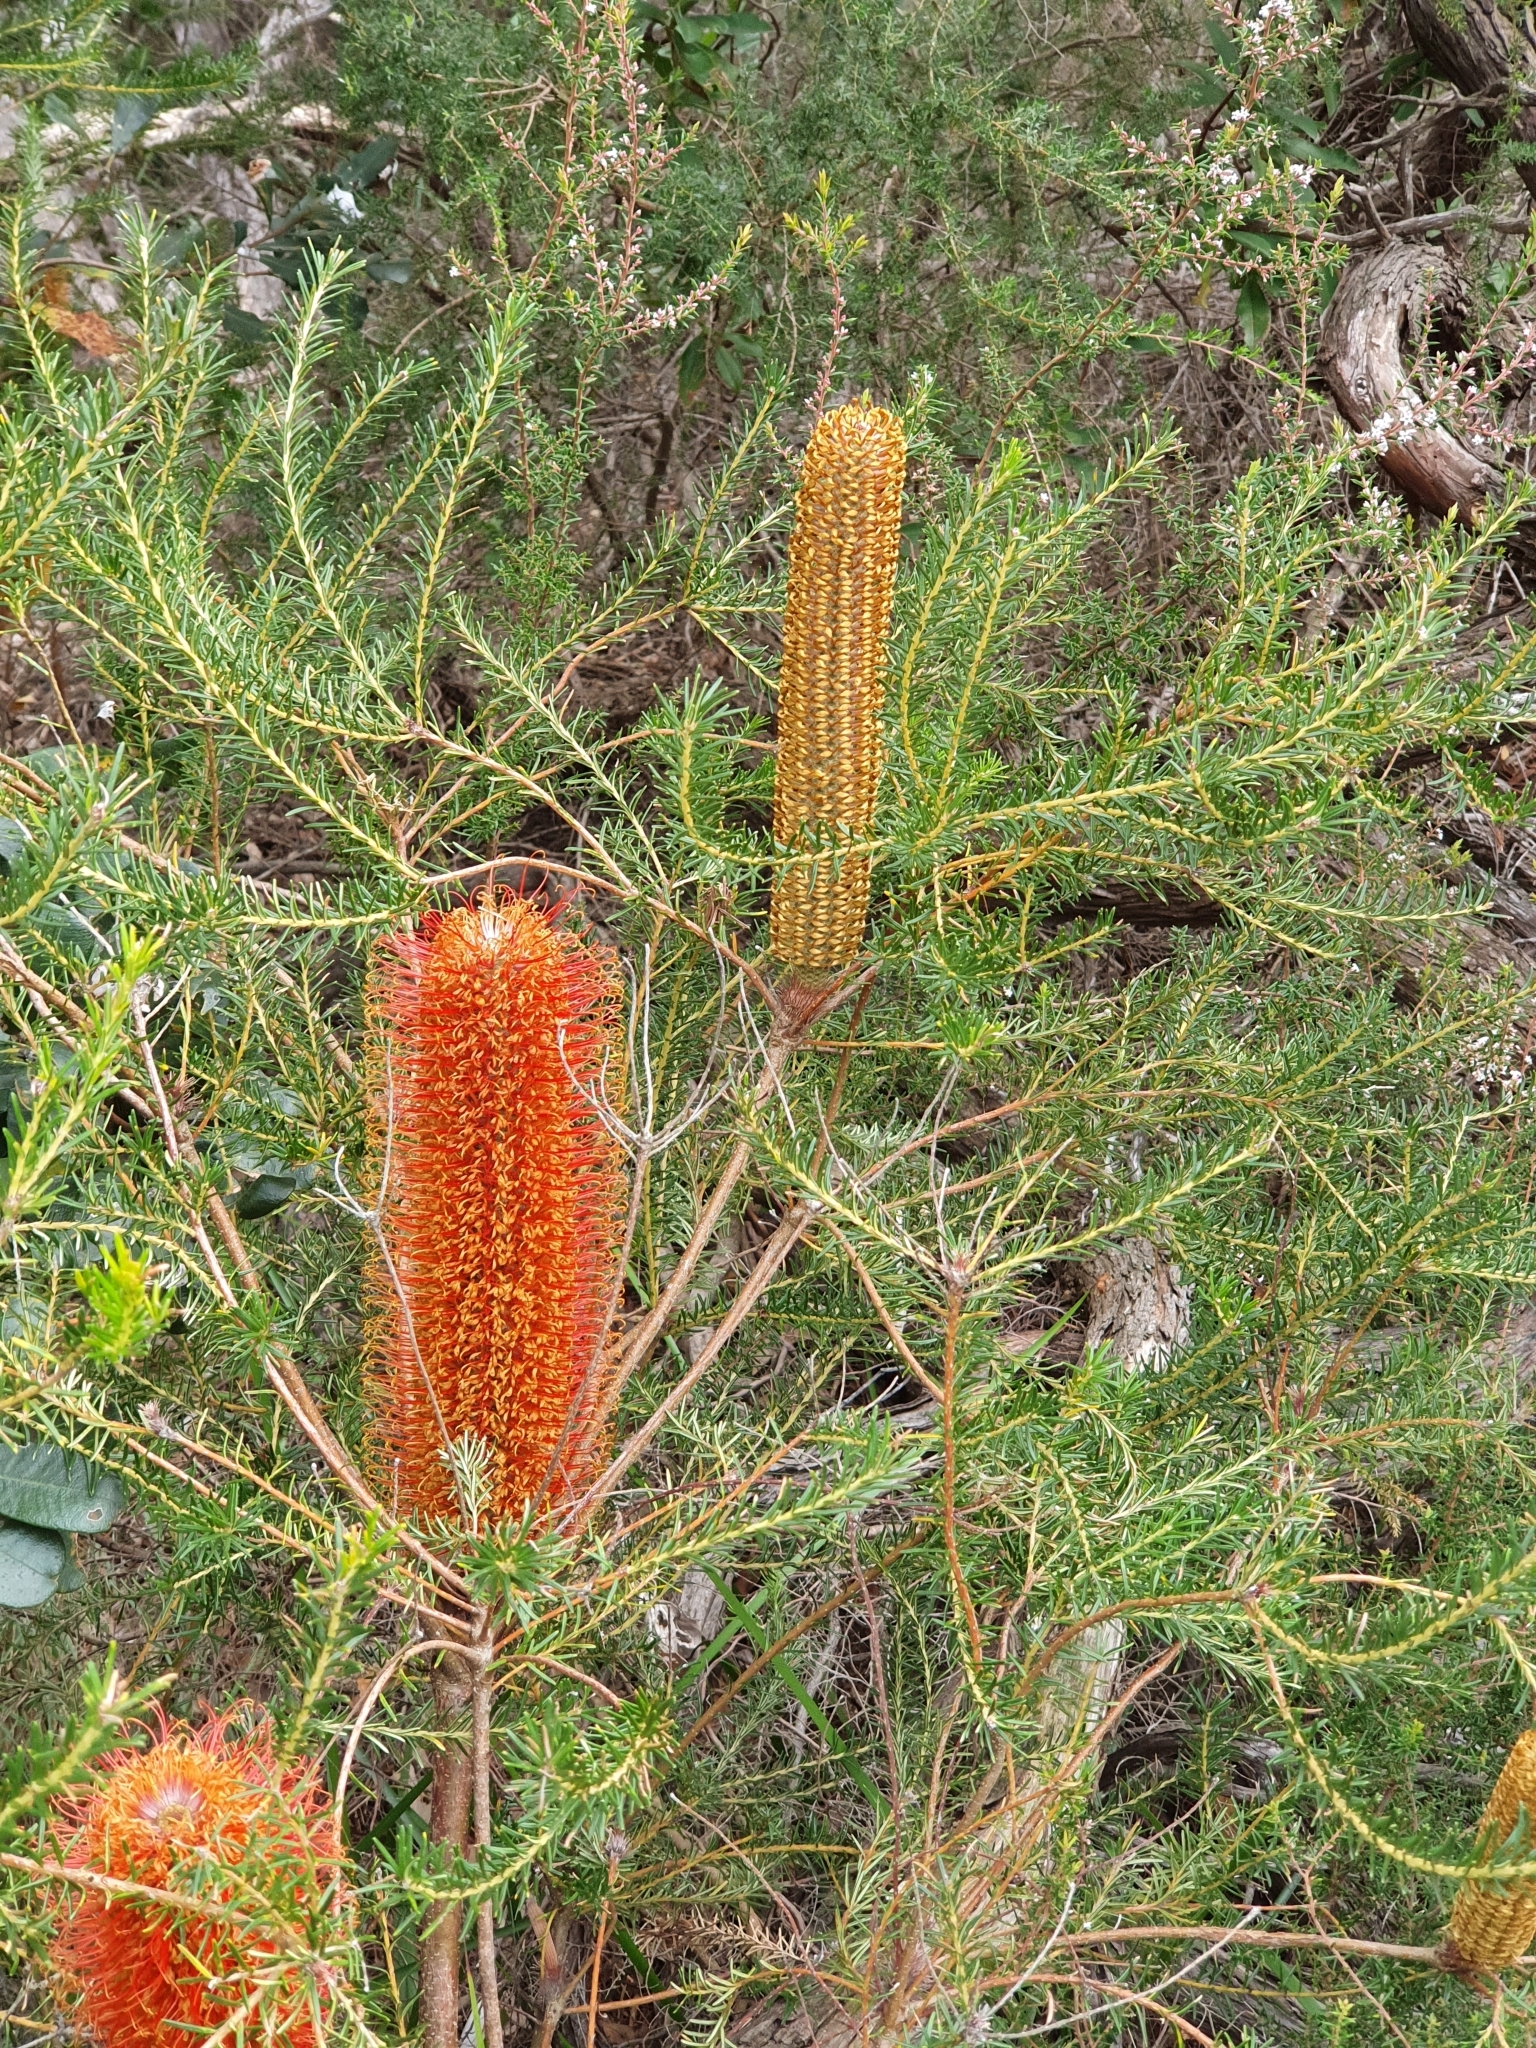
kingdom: Plantae
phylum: Tracheophyta
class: Magnoliopsida
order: Proteales
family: Proteaceae
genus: Banksia
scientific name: Banksia ericifolia
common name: Heath-leaf banksia
